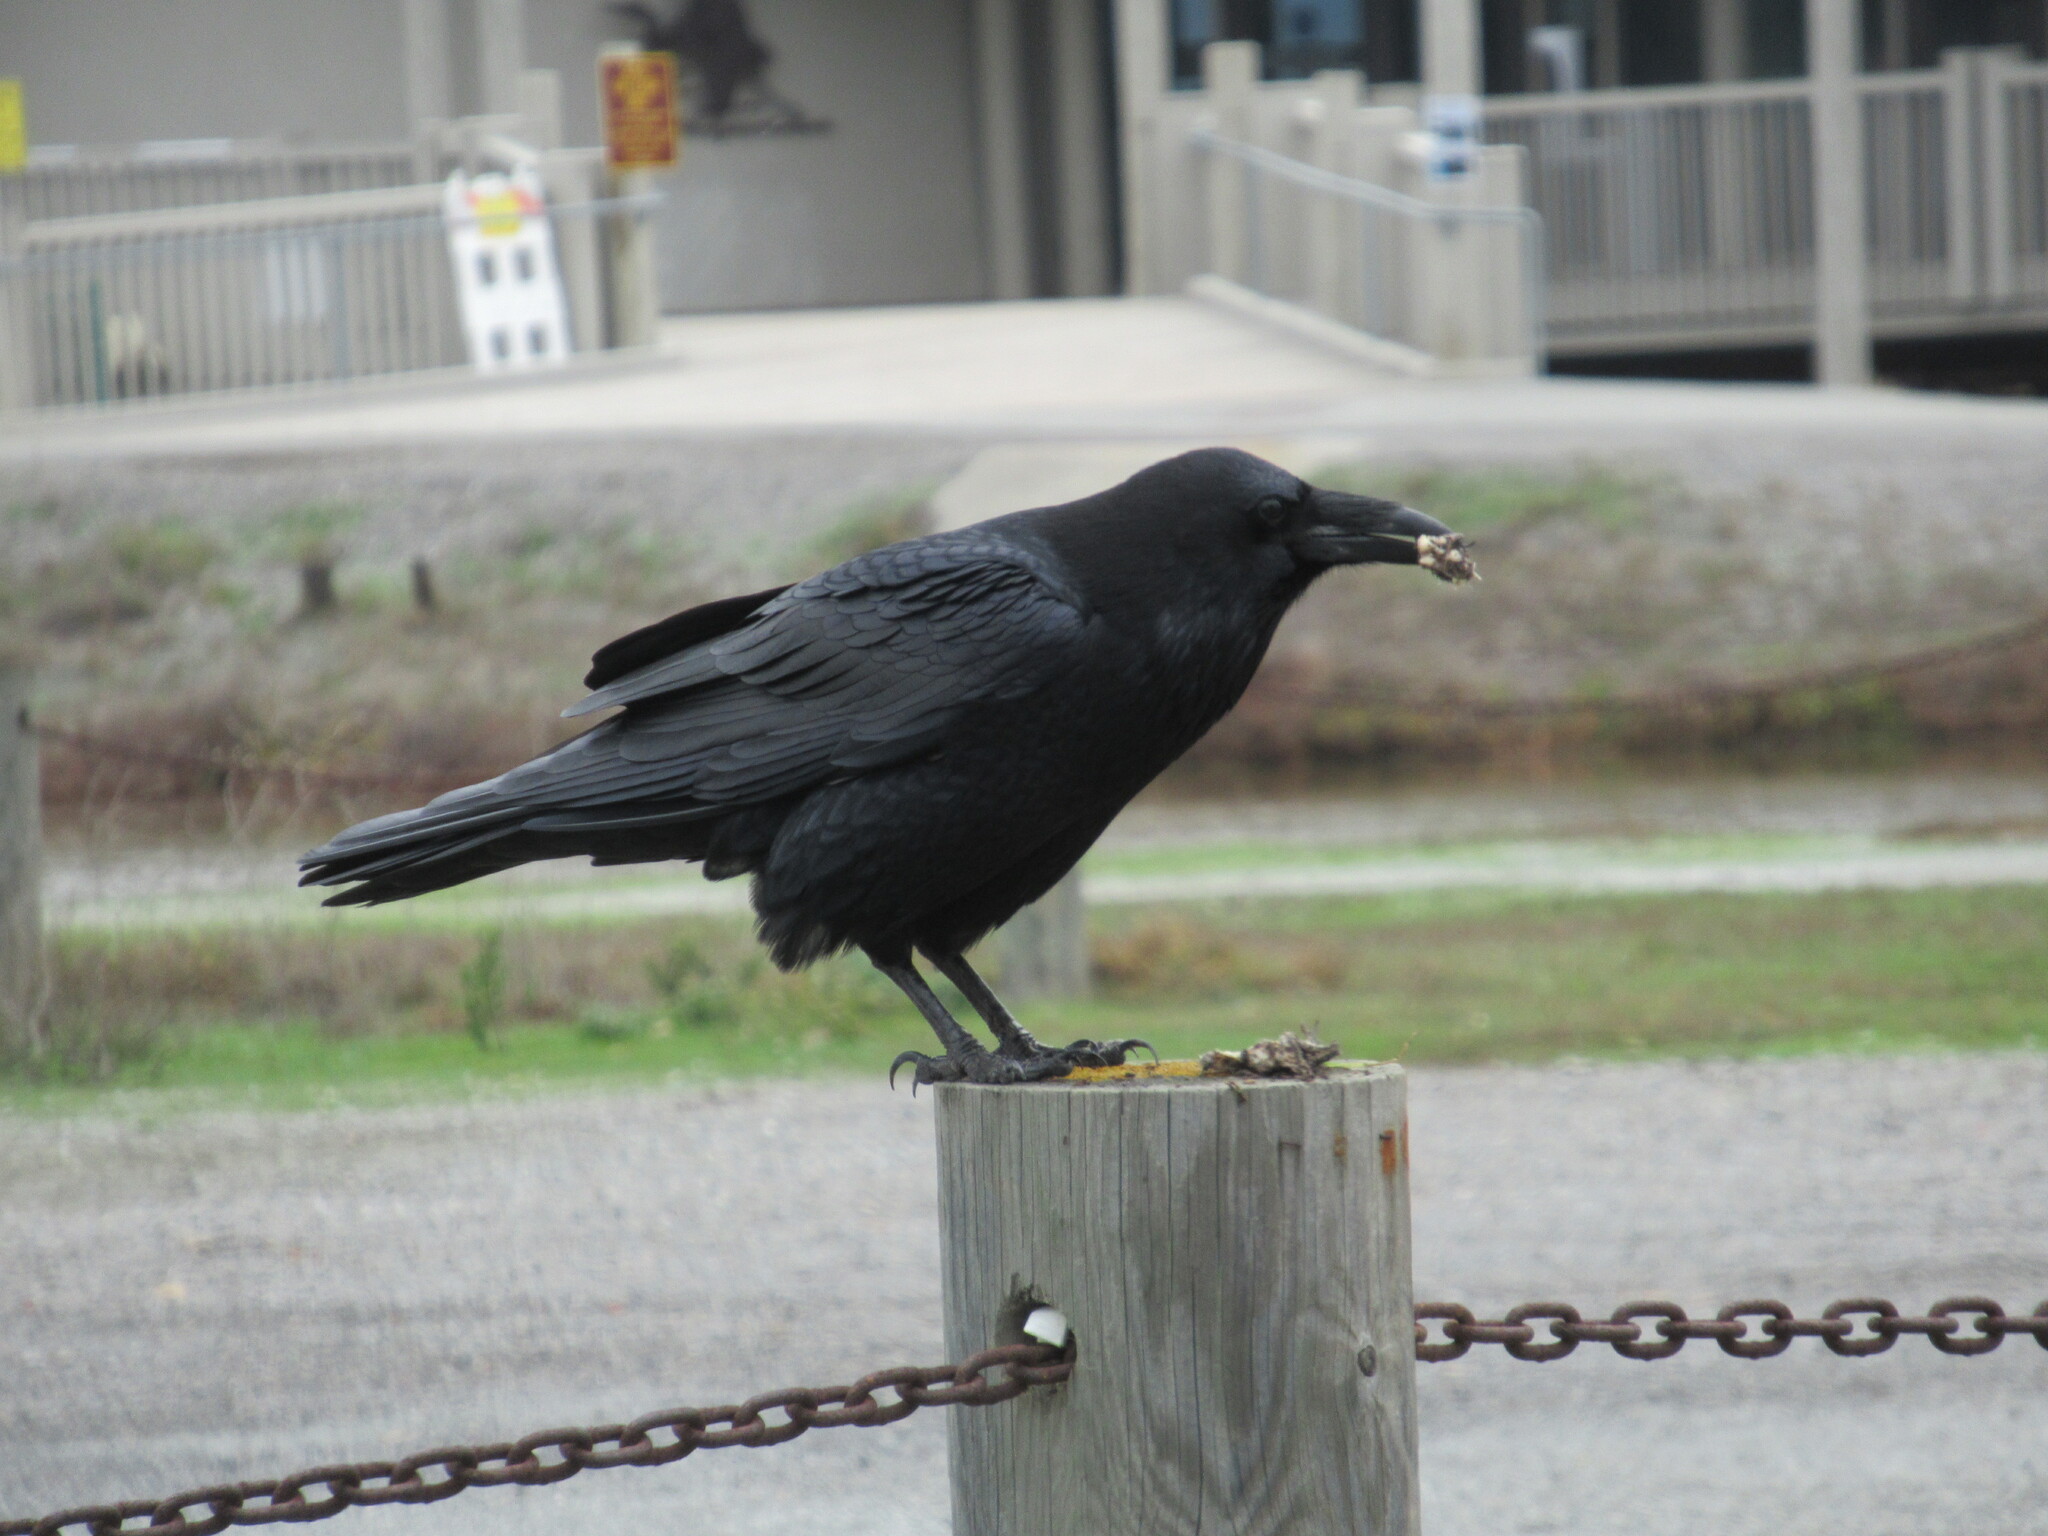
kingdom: Animalia
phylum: Chordata
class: Aves
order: Passeriformes
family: Corvidae
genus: Corvus
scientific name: Corvus corax
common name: Common raven
